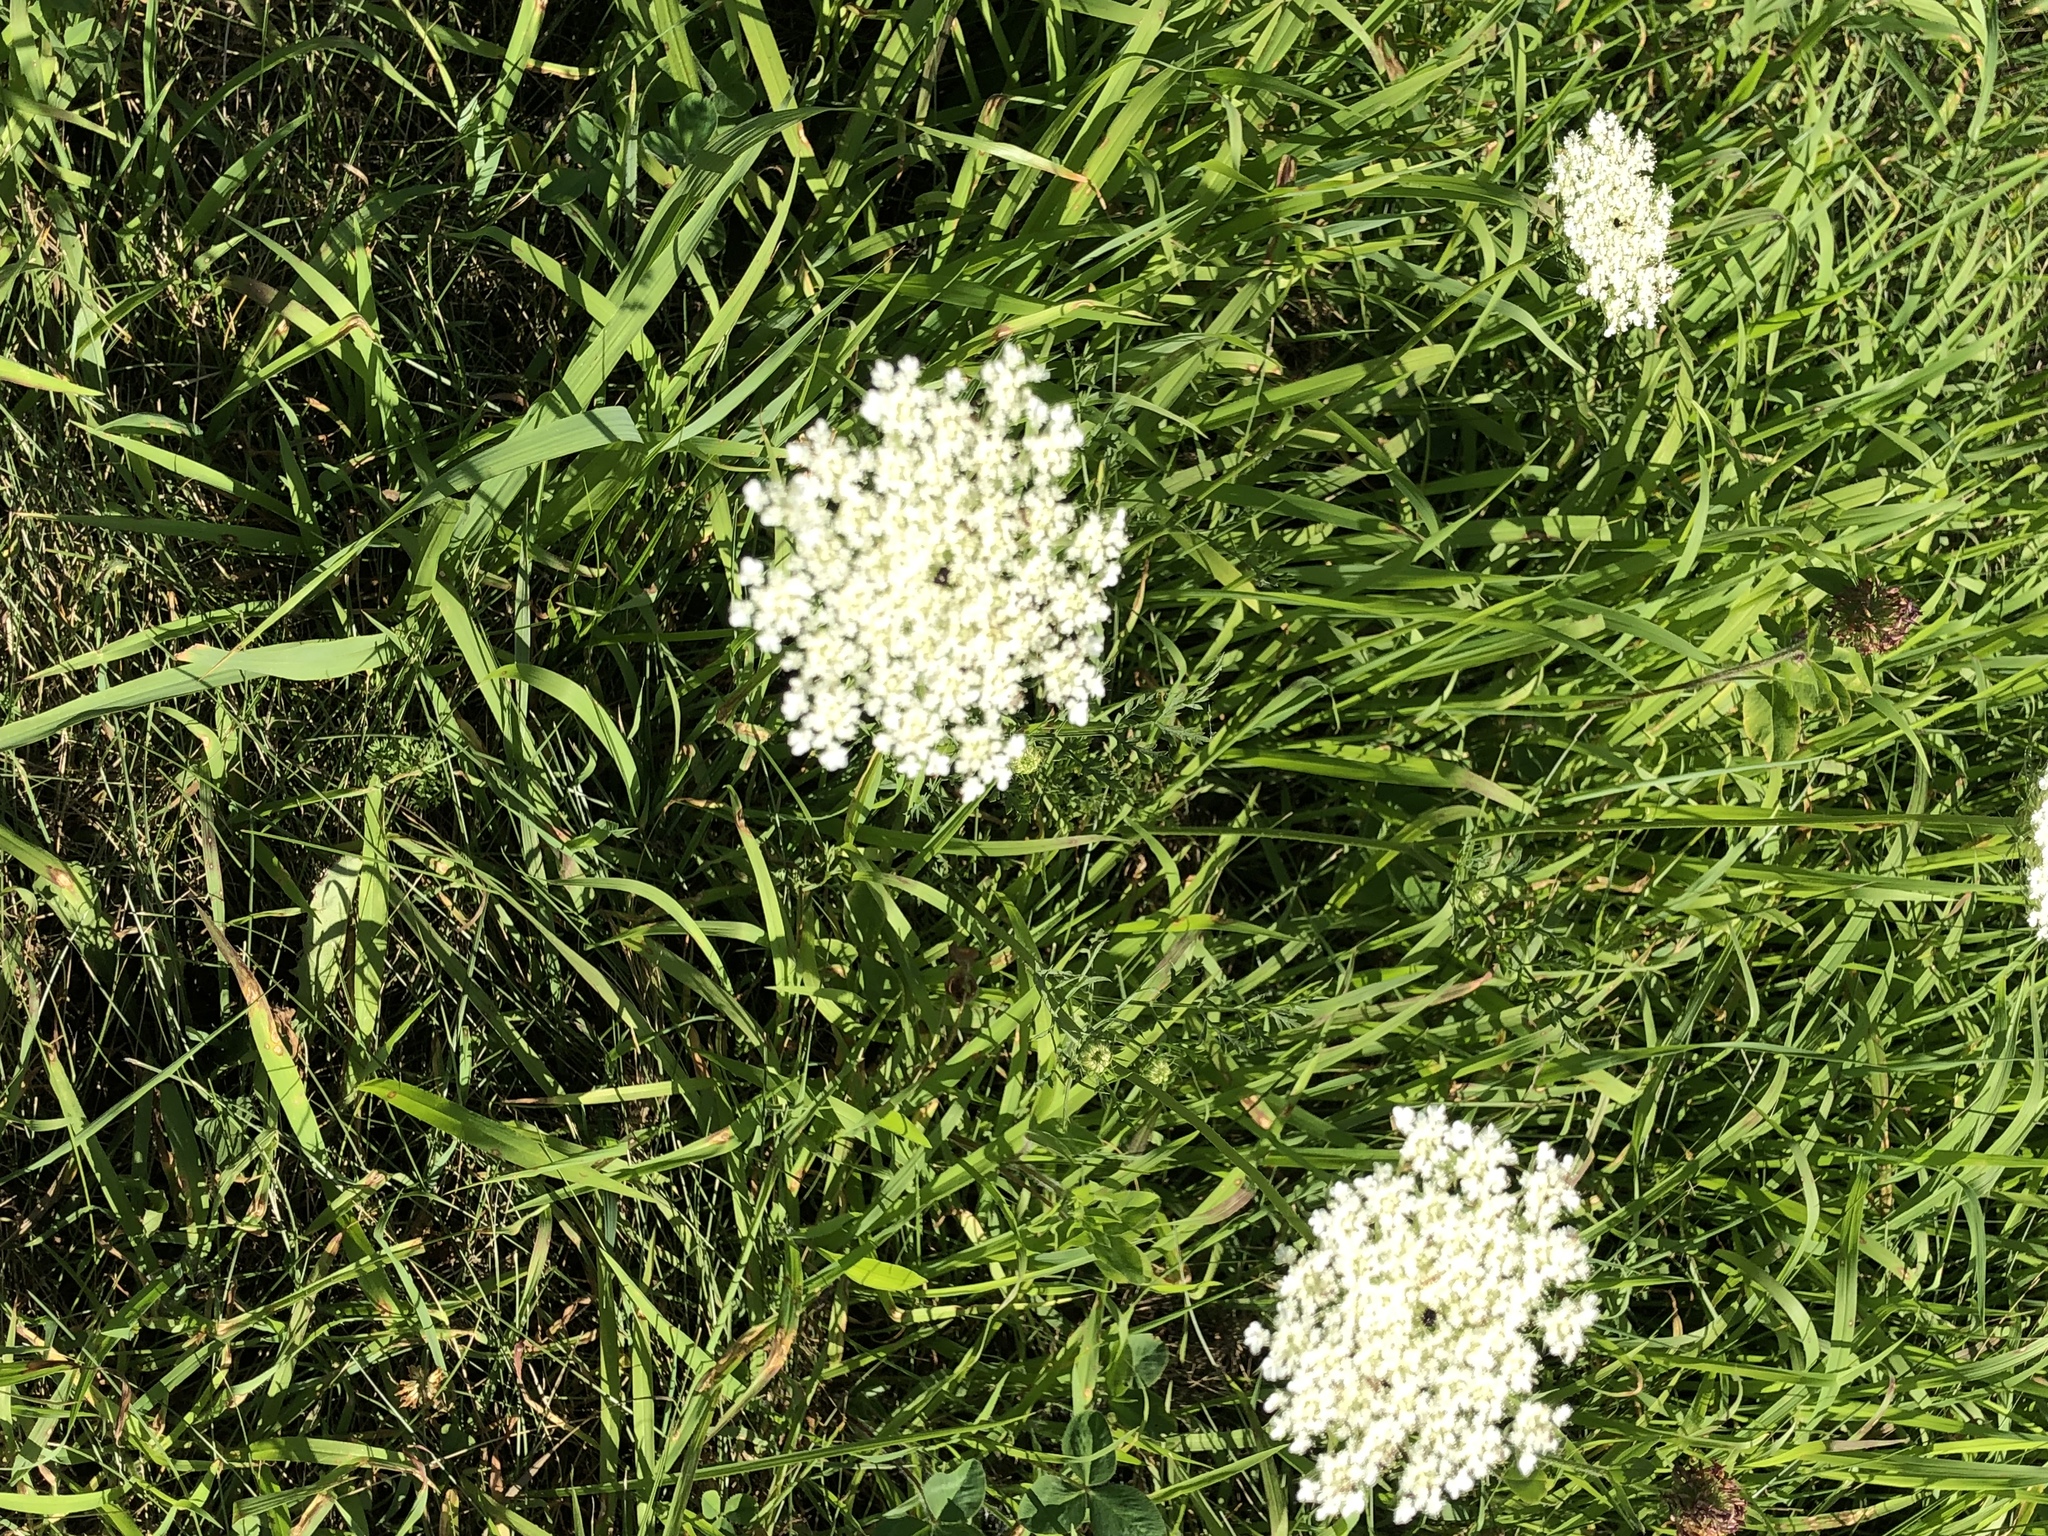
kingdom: Plantae
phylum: Tracheophyta
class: Magnoliopsida
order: Apiales
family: Apiaceae
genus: Daucus
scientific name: Daucus carota
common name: Wild carrot
